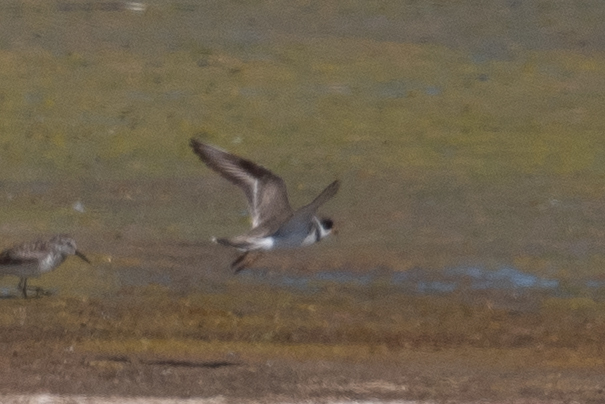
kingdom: Animalia
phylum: Chordata
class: Aves
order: Charadriiformes
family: Charadriidae
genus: Charadrius
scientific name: Charadrius semipalmatus
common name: Semipalmated plover
